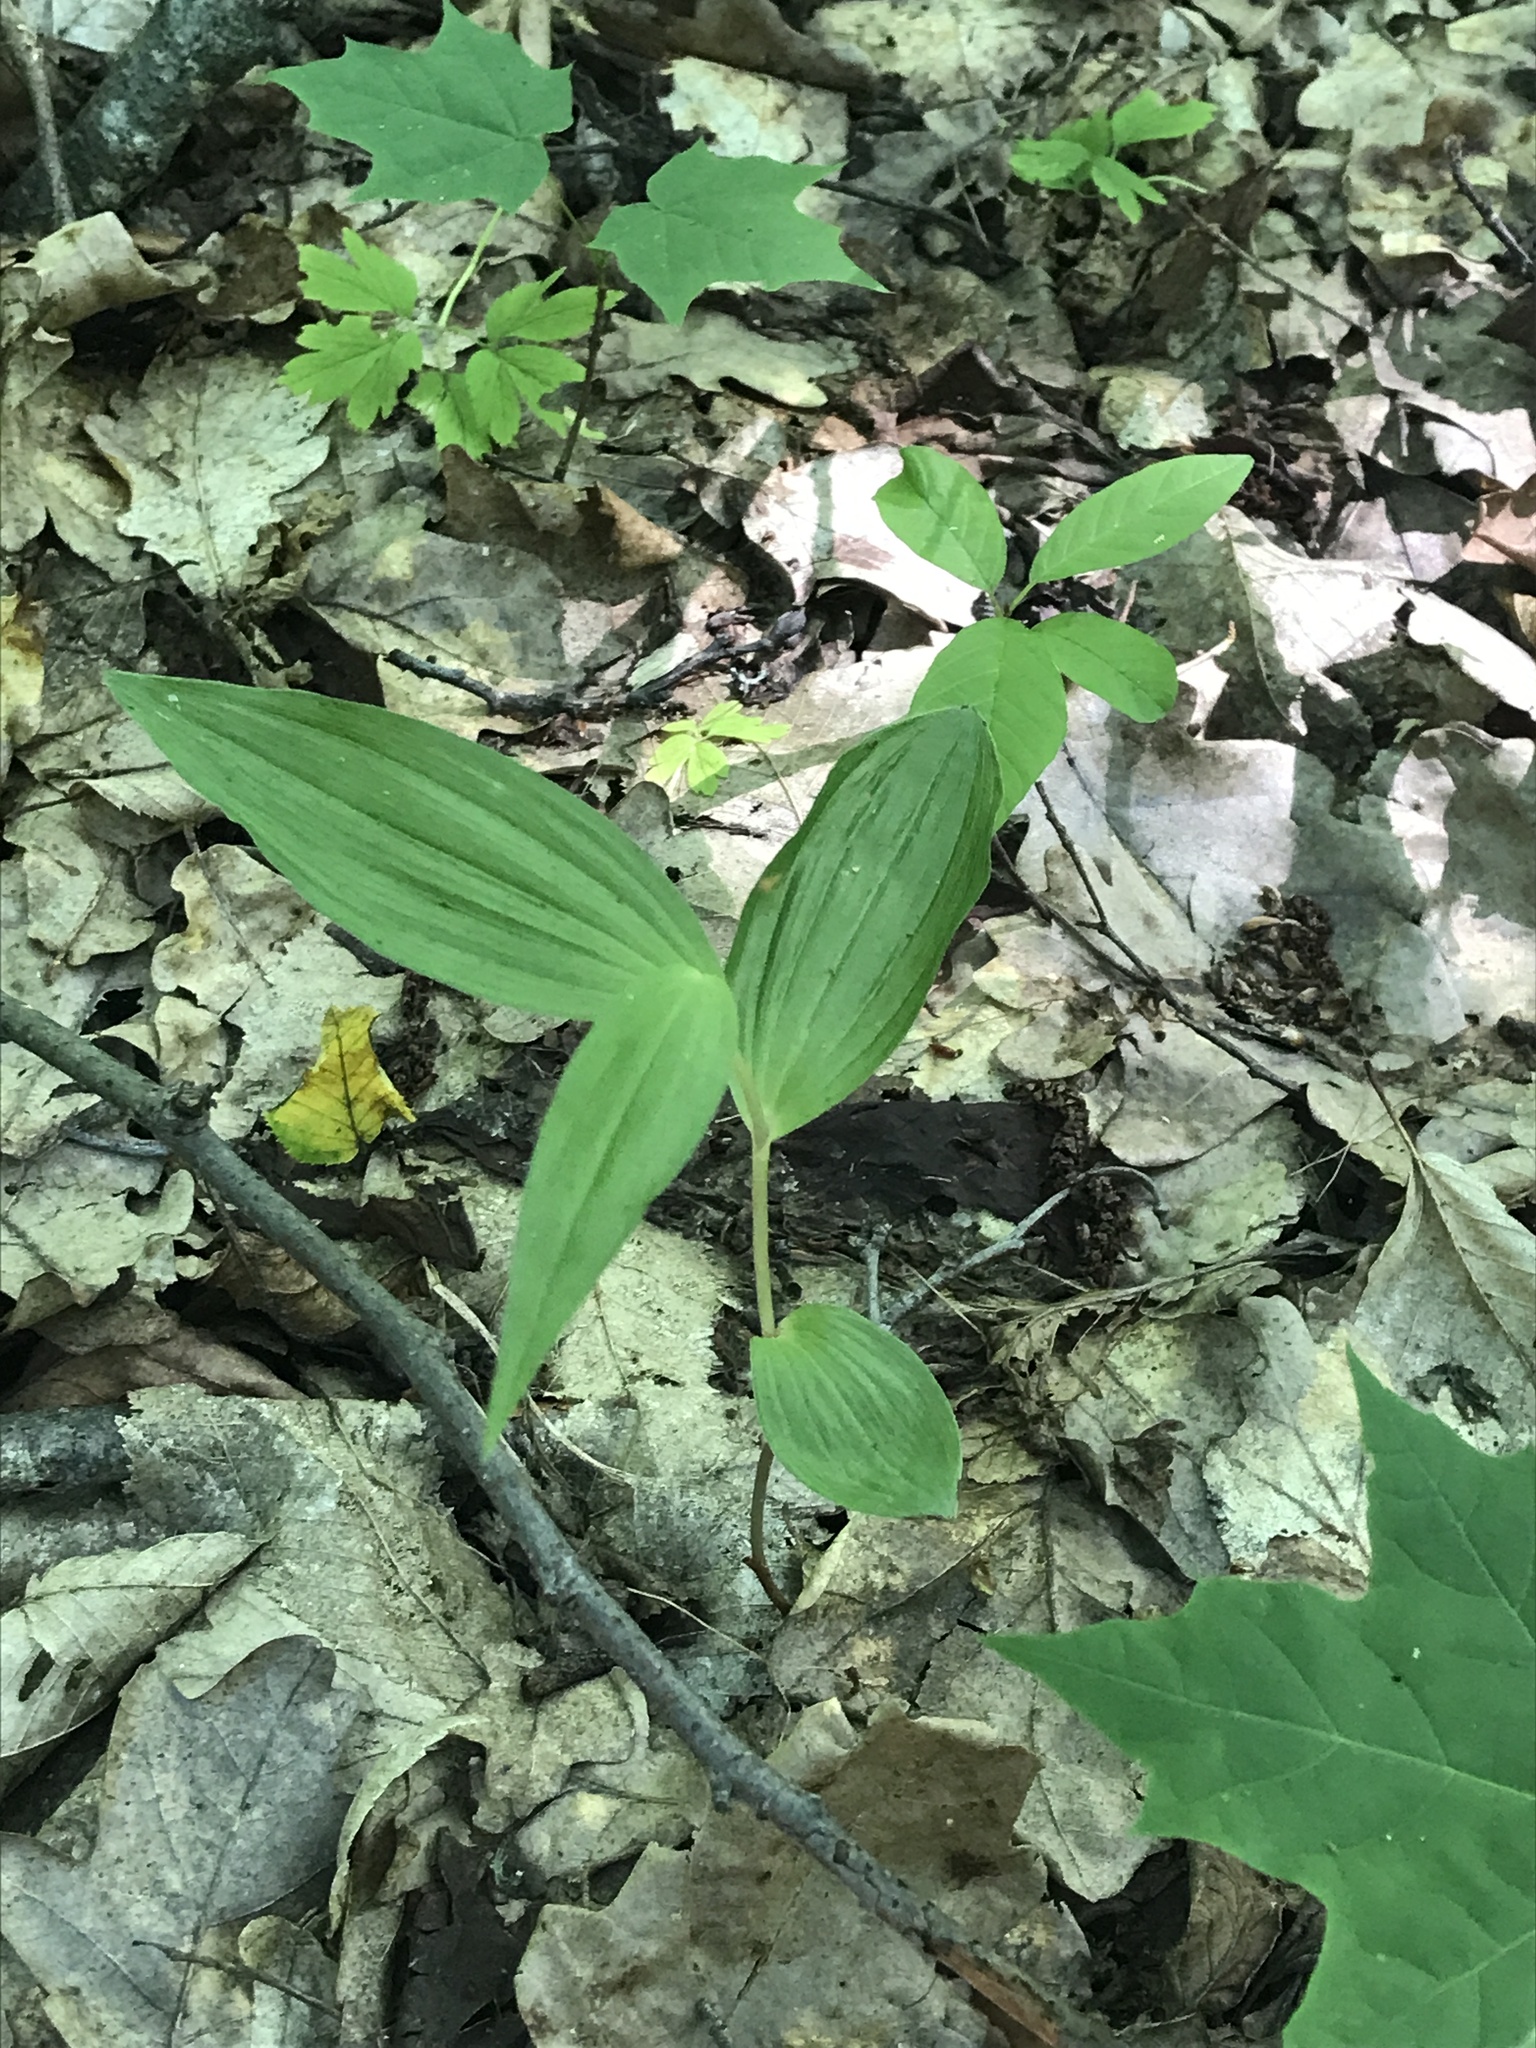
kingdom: Plantae
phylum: Tracheophyta
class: Liliopsida
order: Liliales
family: Melanthiaceae
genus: Veratrum
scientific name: Veratrum lobelianum
